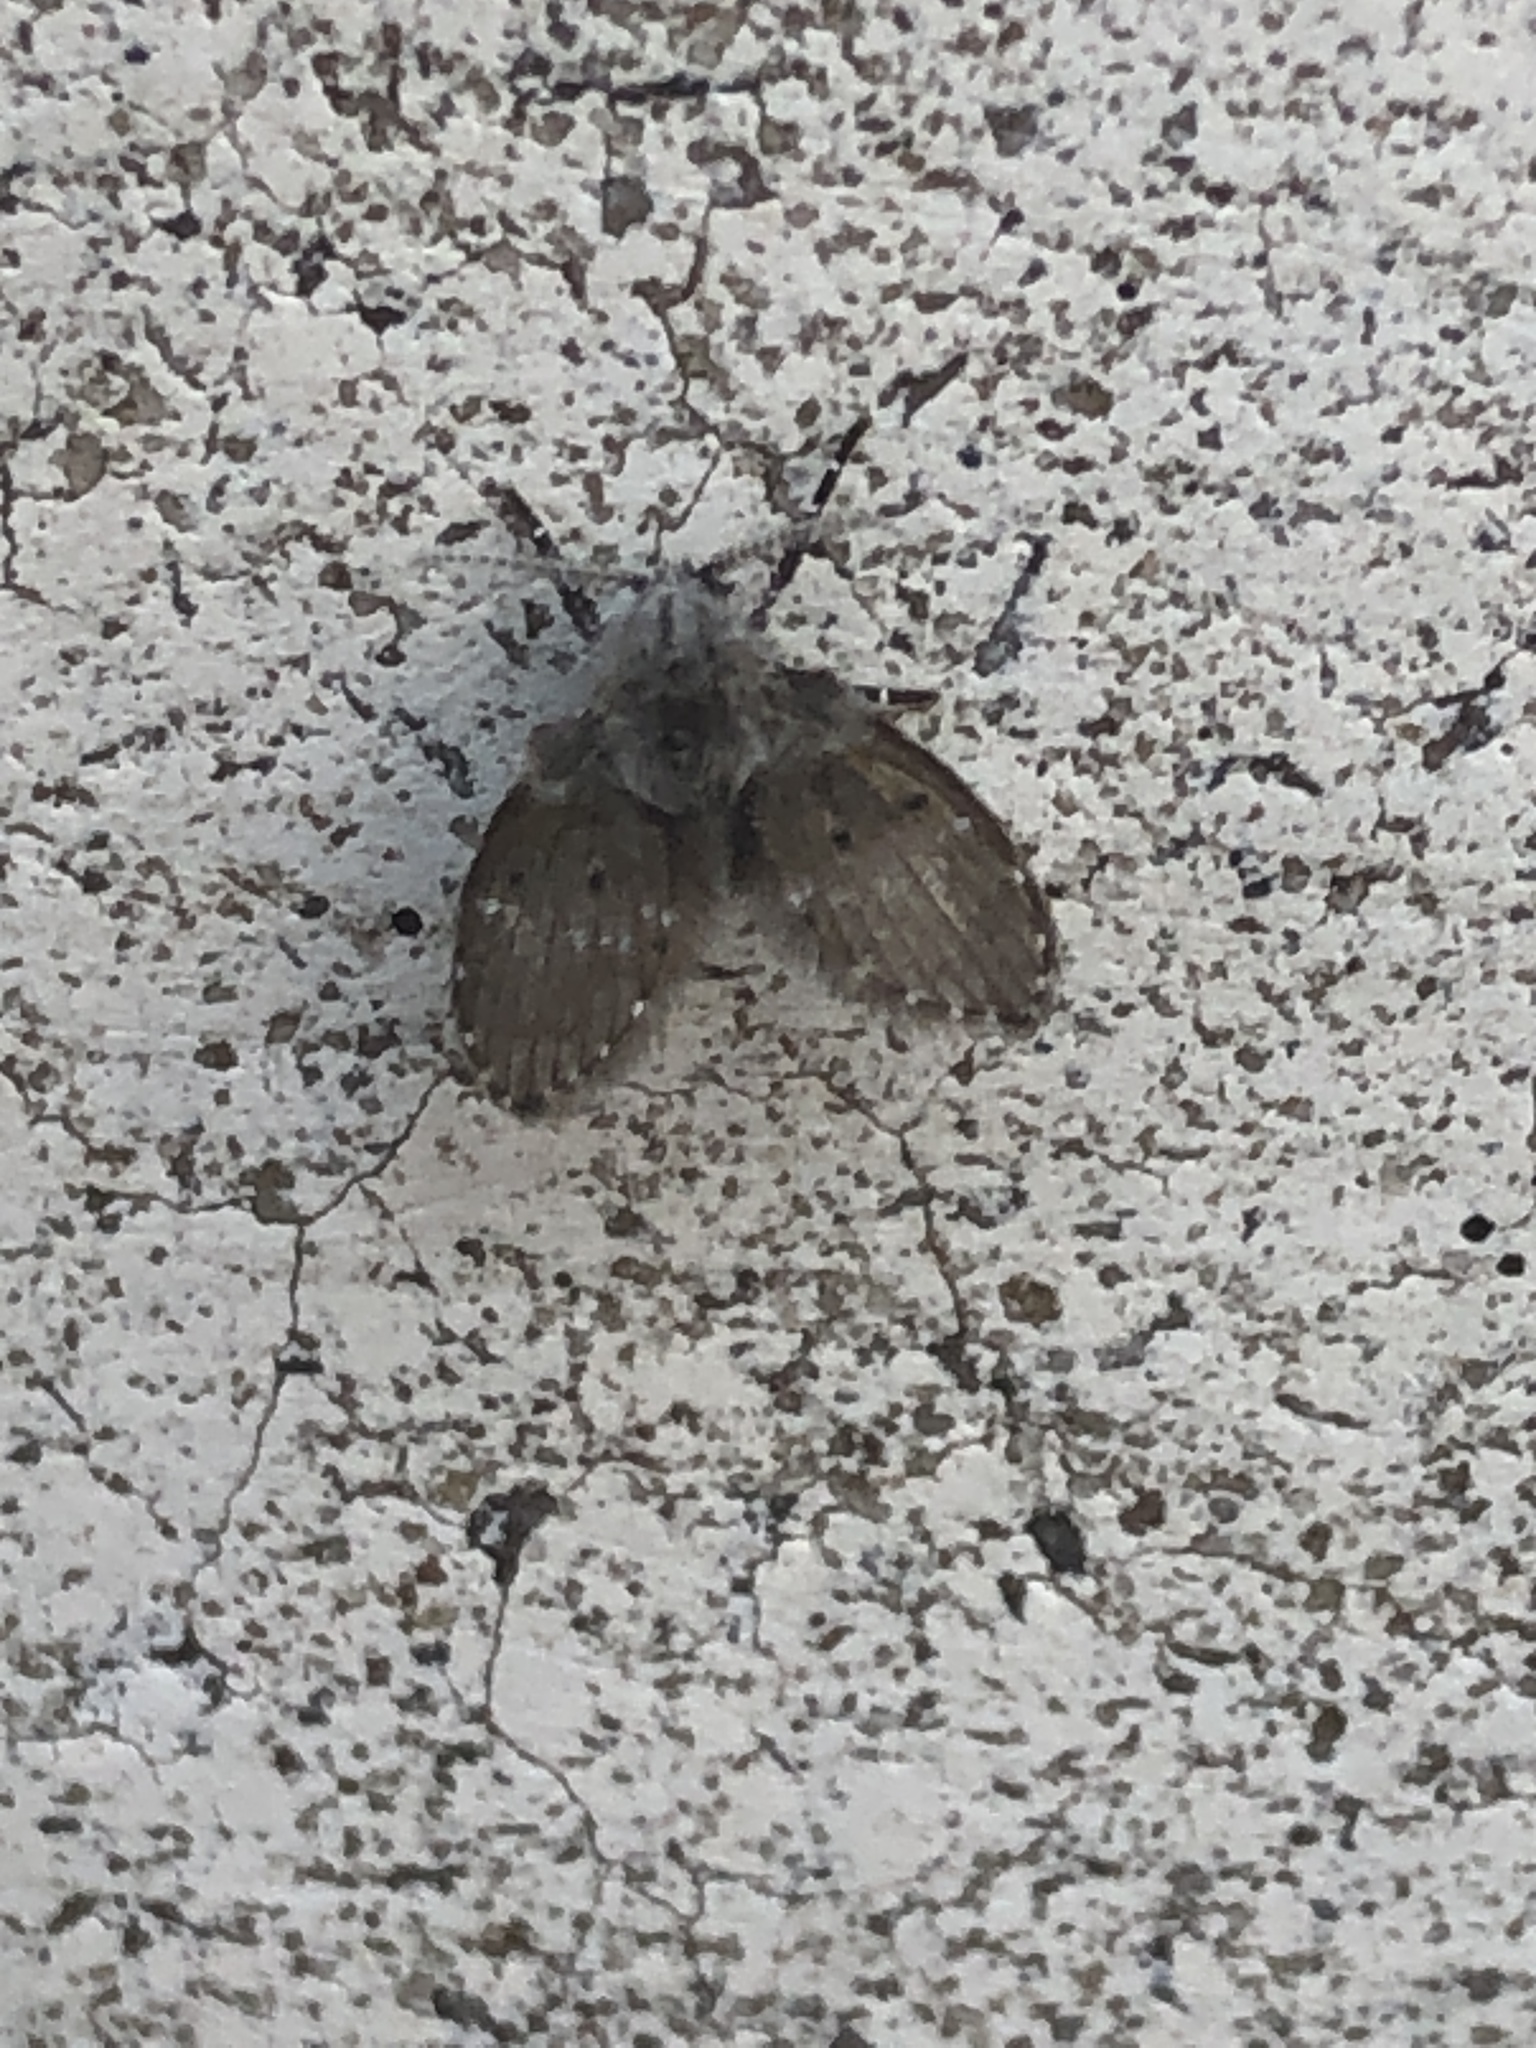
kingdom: Animalia
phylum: Arthropoda
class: Insecta
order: Diptera
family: Psychodidae
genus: Clogmia
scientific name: Clogmia albipunctatus
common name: White-spotted moth fly
